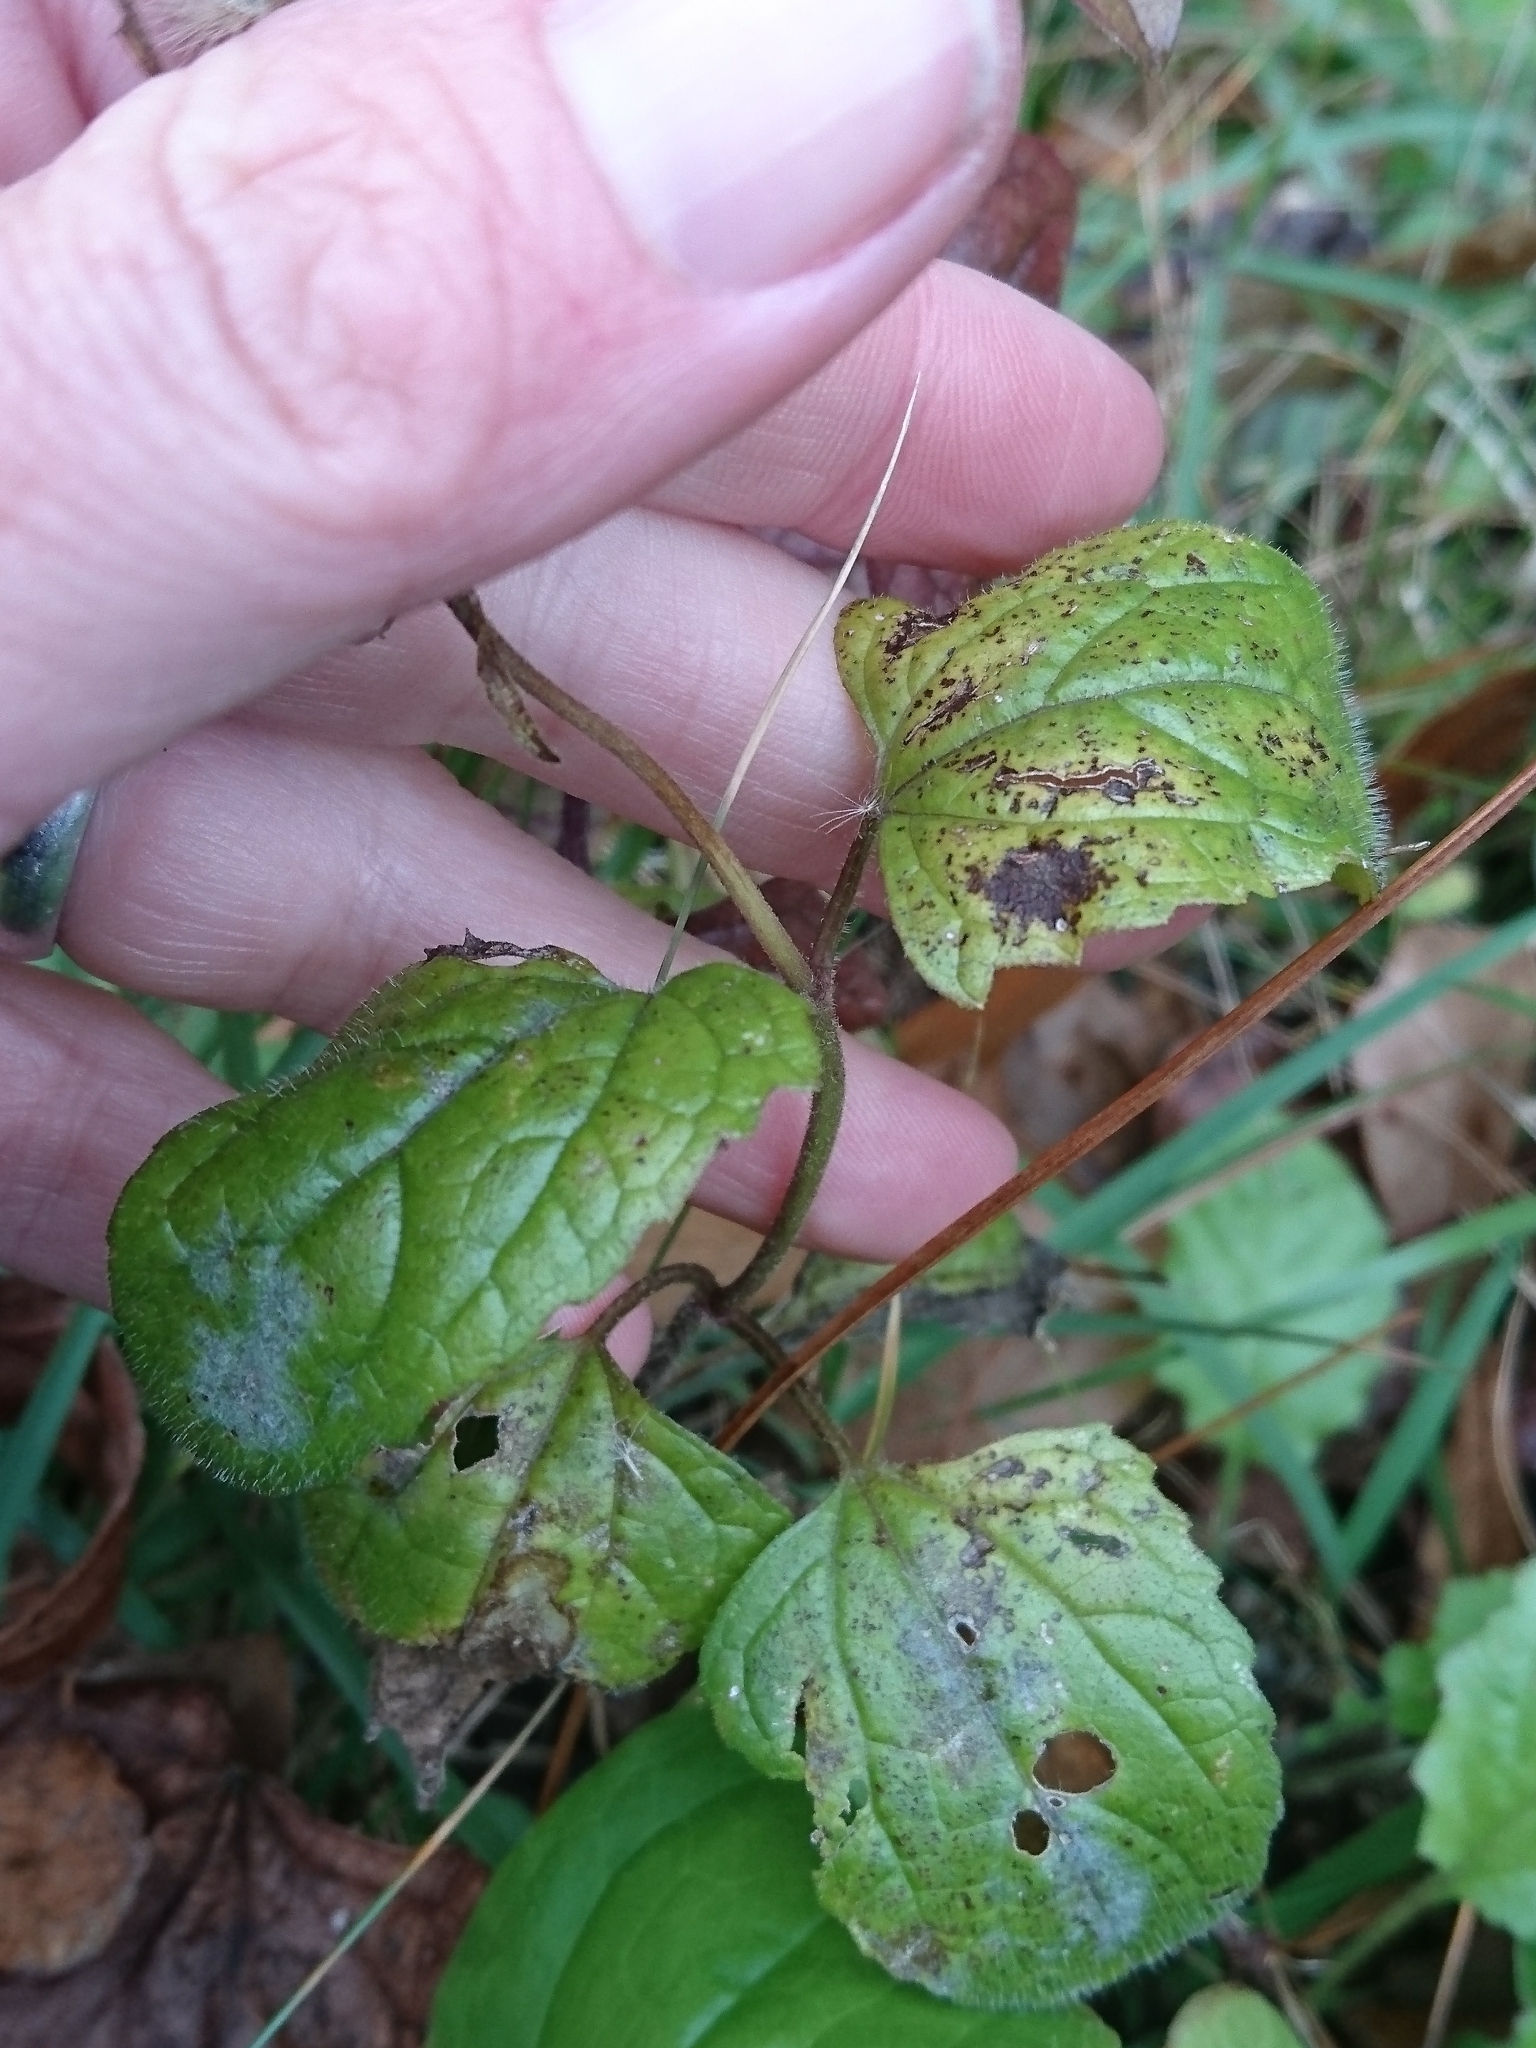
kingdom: Plantae
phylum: Tracheophyta
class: Magnoliopsida
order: Asterales
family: Asteraceae
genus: Conoclinium
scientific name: Conoclinium coelestinum
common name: Blue mistflower
